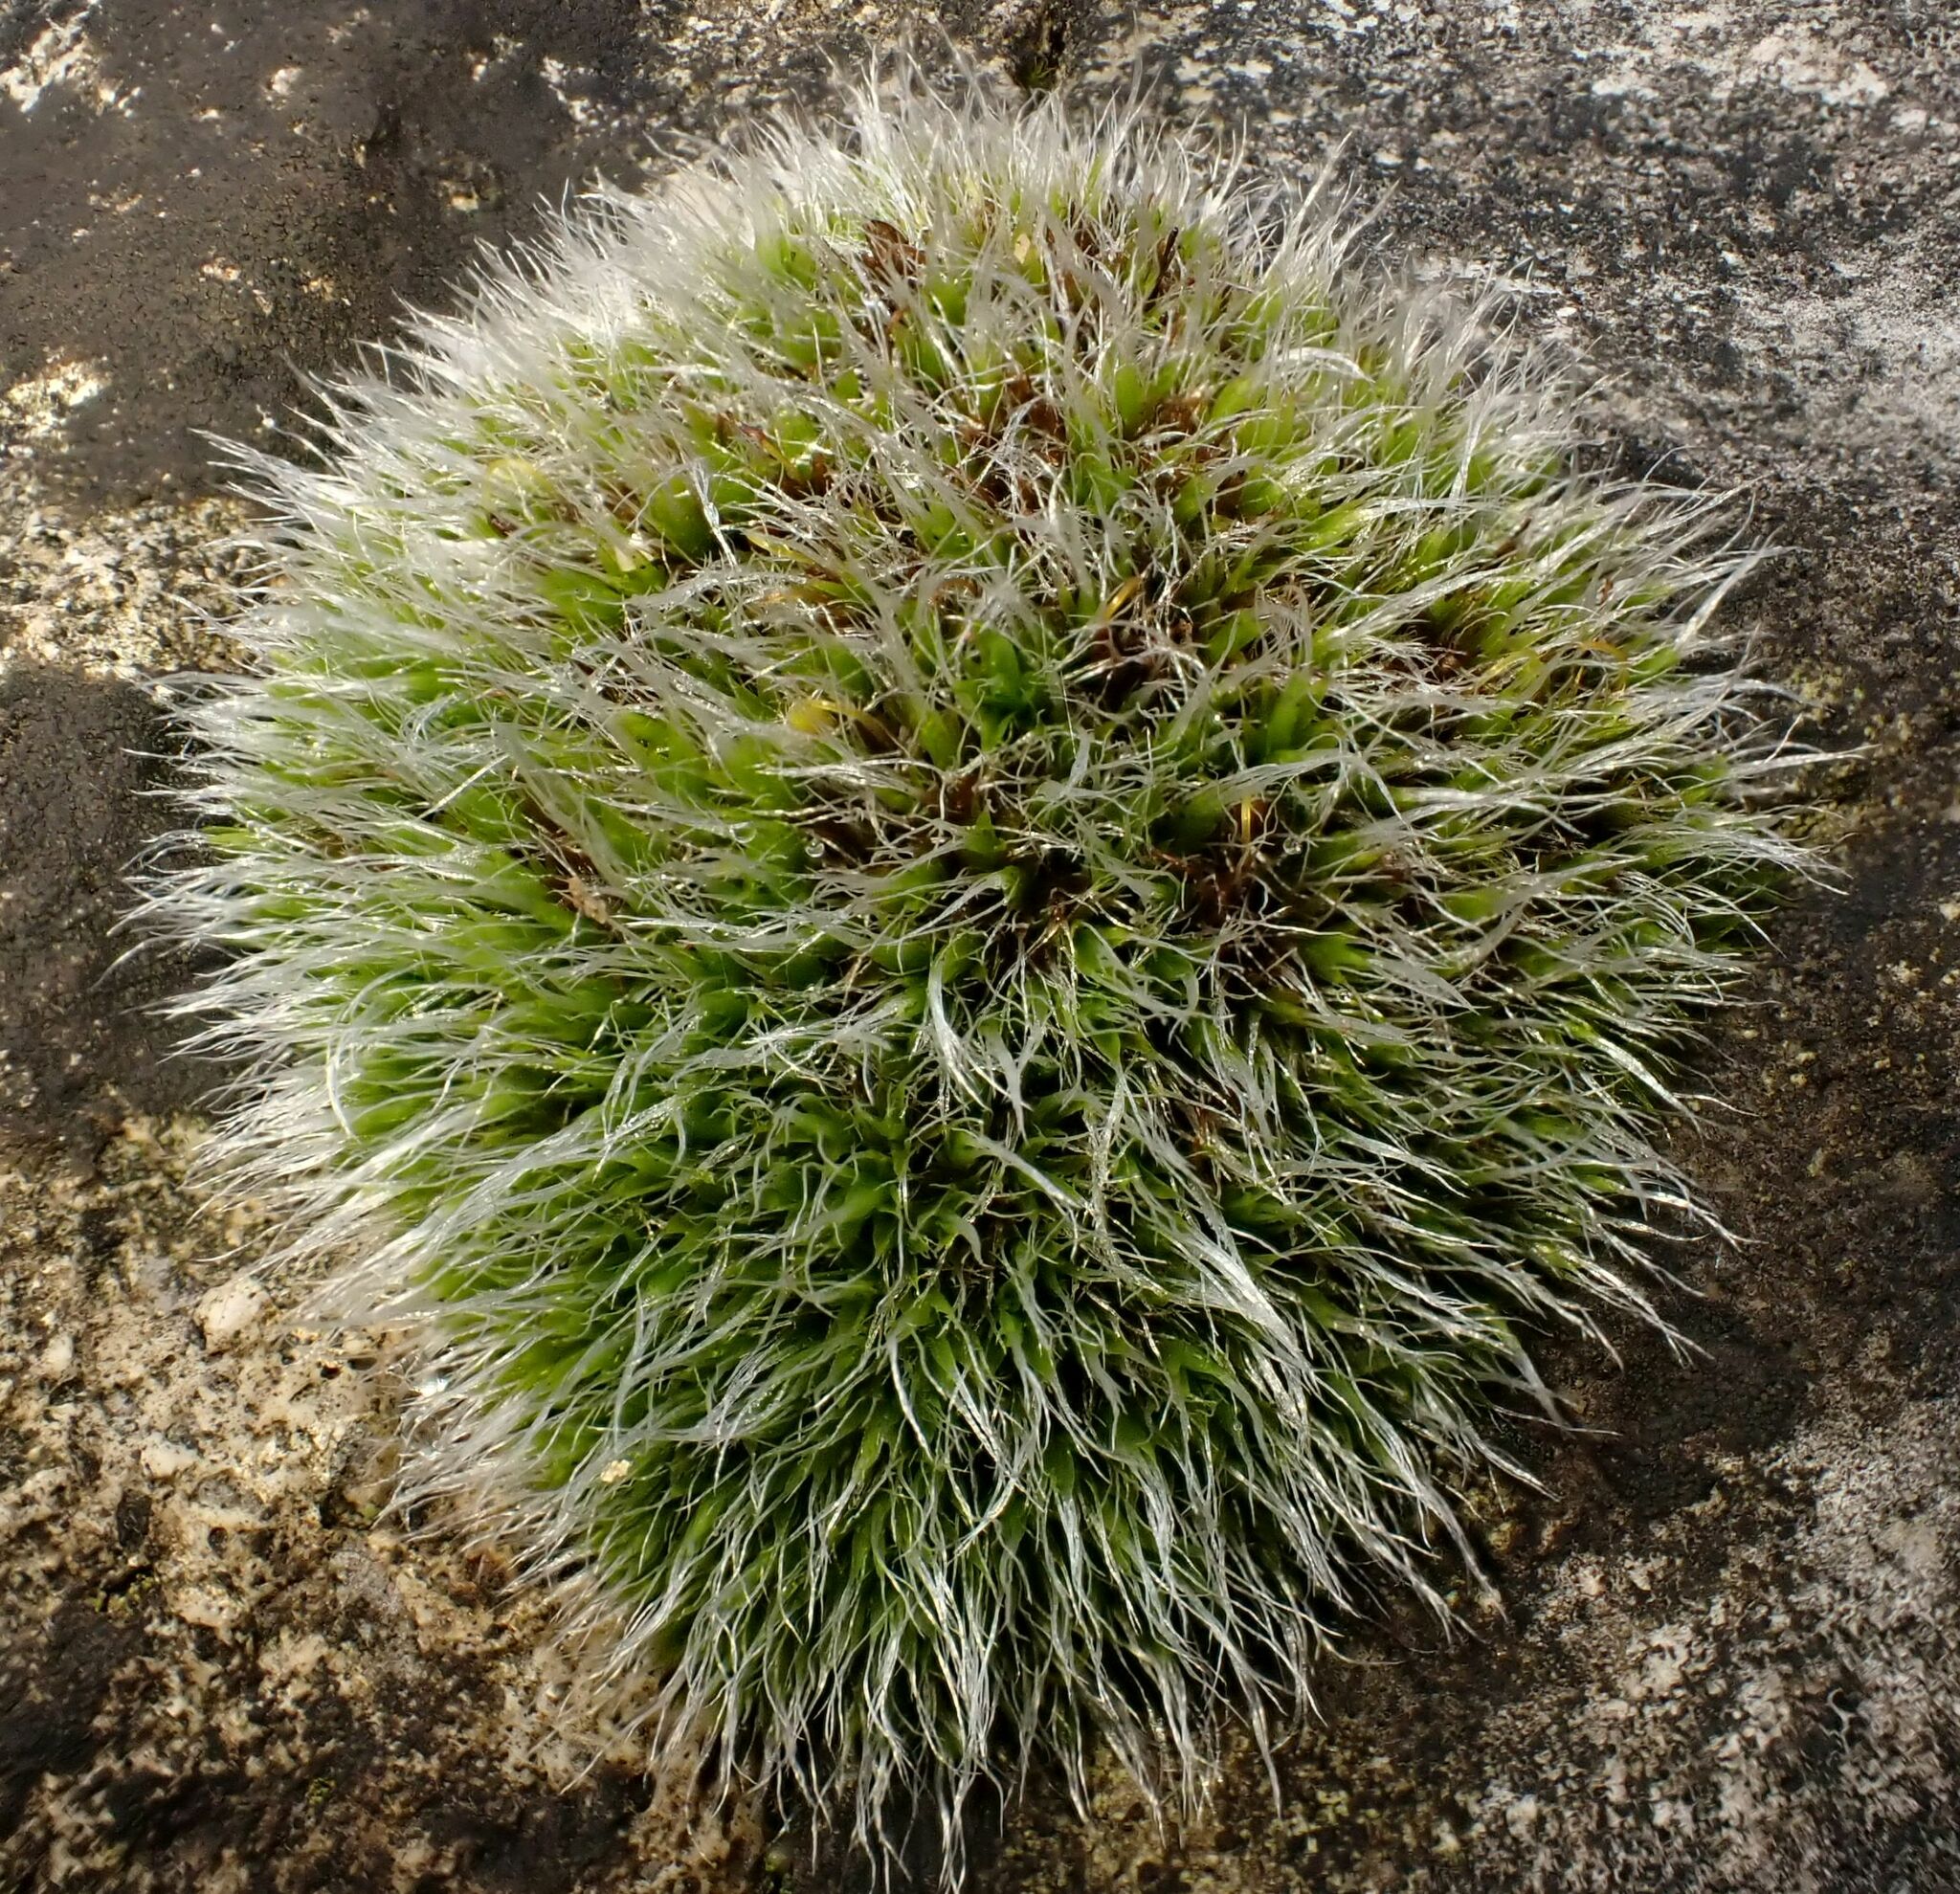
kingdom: Plantae
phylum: Bryophyta
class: Bryopsida
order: Grimmiales
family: Grimmiaceae
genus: Grimmia
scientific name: Grimmia pulvinata
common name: Grey-cushioned grimmia
